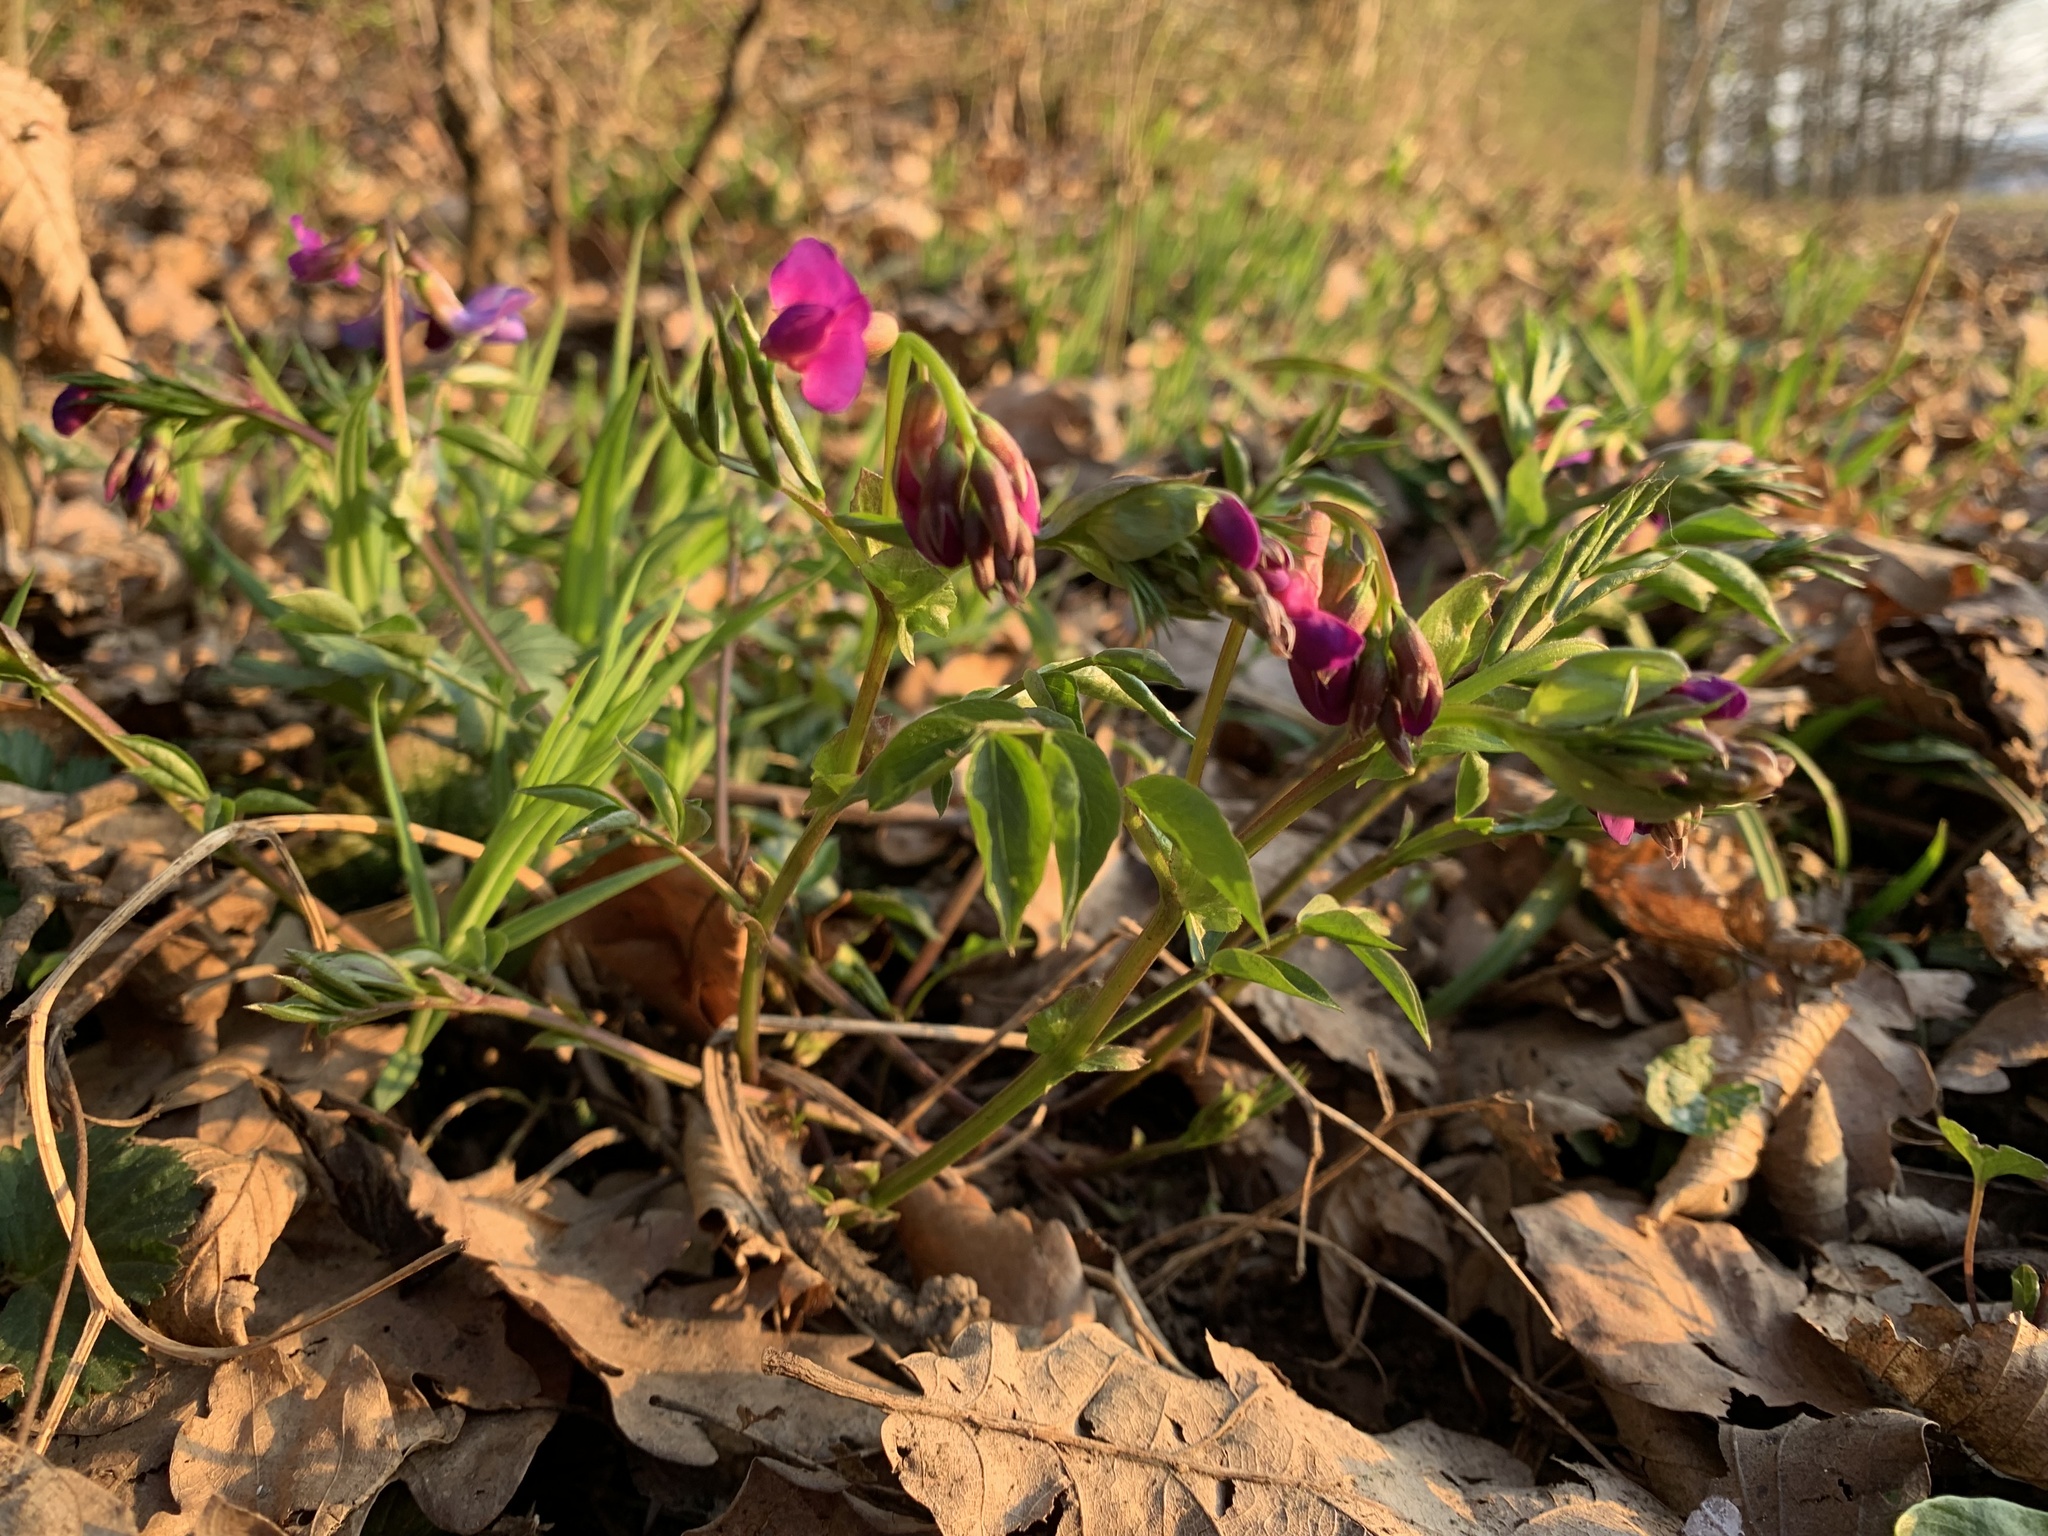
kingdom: Plantae
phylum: Tracheophyta
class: Magnoliopsida
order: Fabales
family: Fabaceae
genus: Lathyrus
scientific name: Lathyrus vernus
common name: Spring pea
